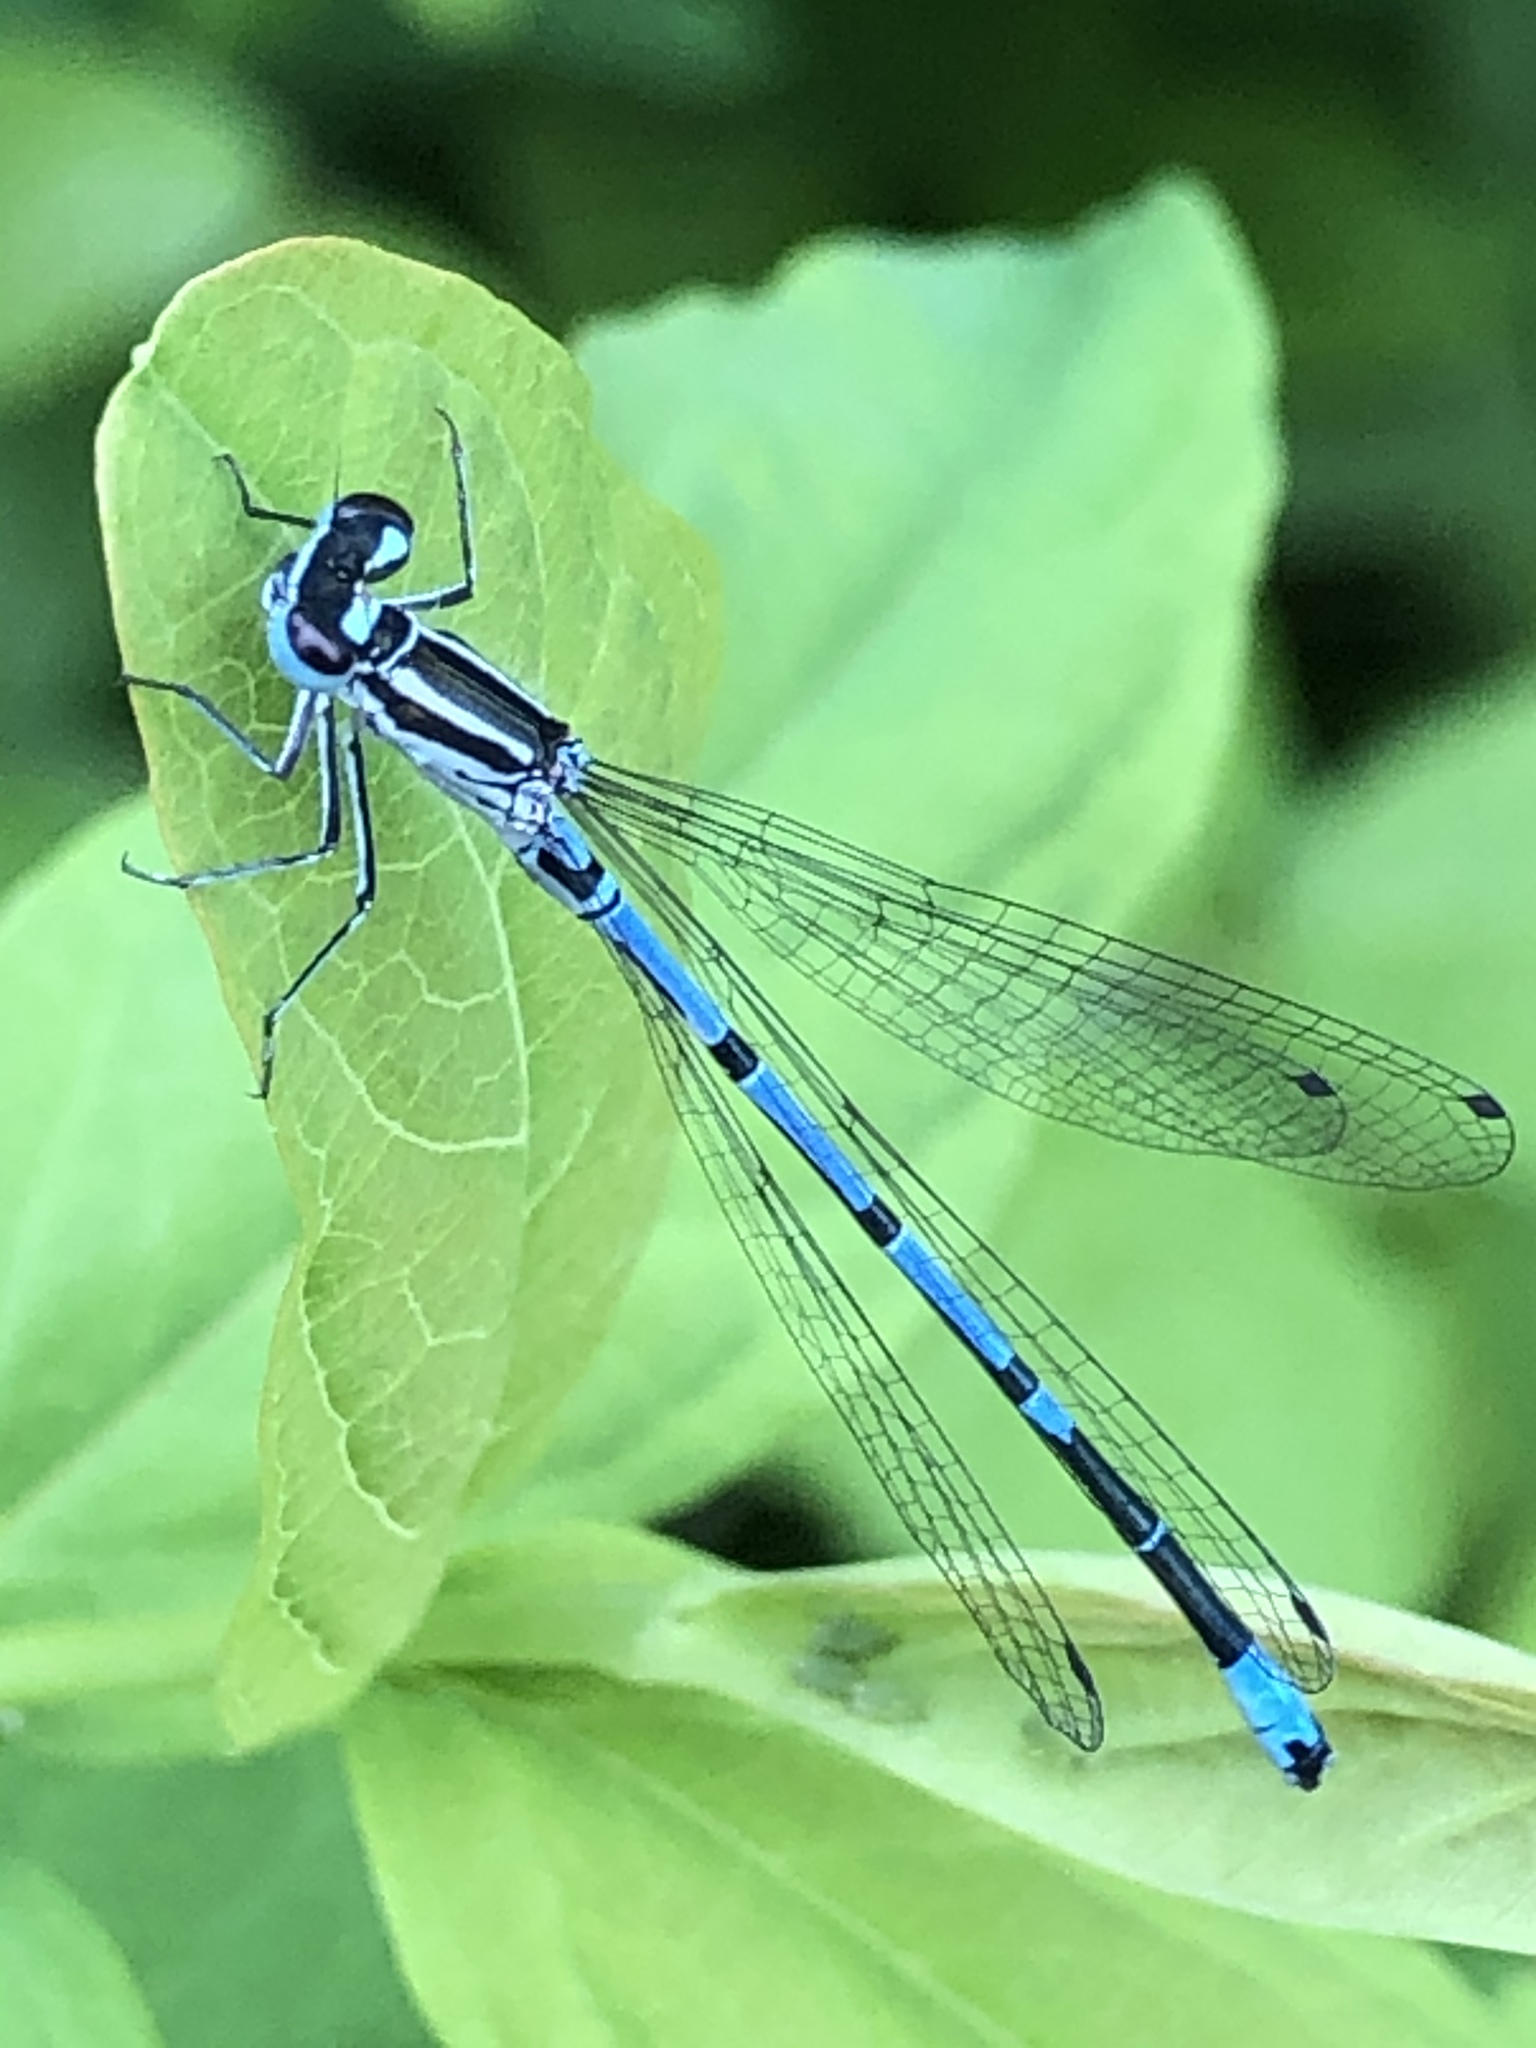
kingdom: Animalia
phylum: Arthropoda
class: Insecta
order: Odonata
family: Coenagrionidae
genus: Coenagrion
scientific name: Coenagrion puella
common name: Azure damselfly
